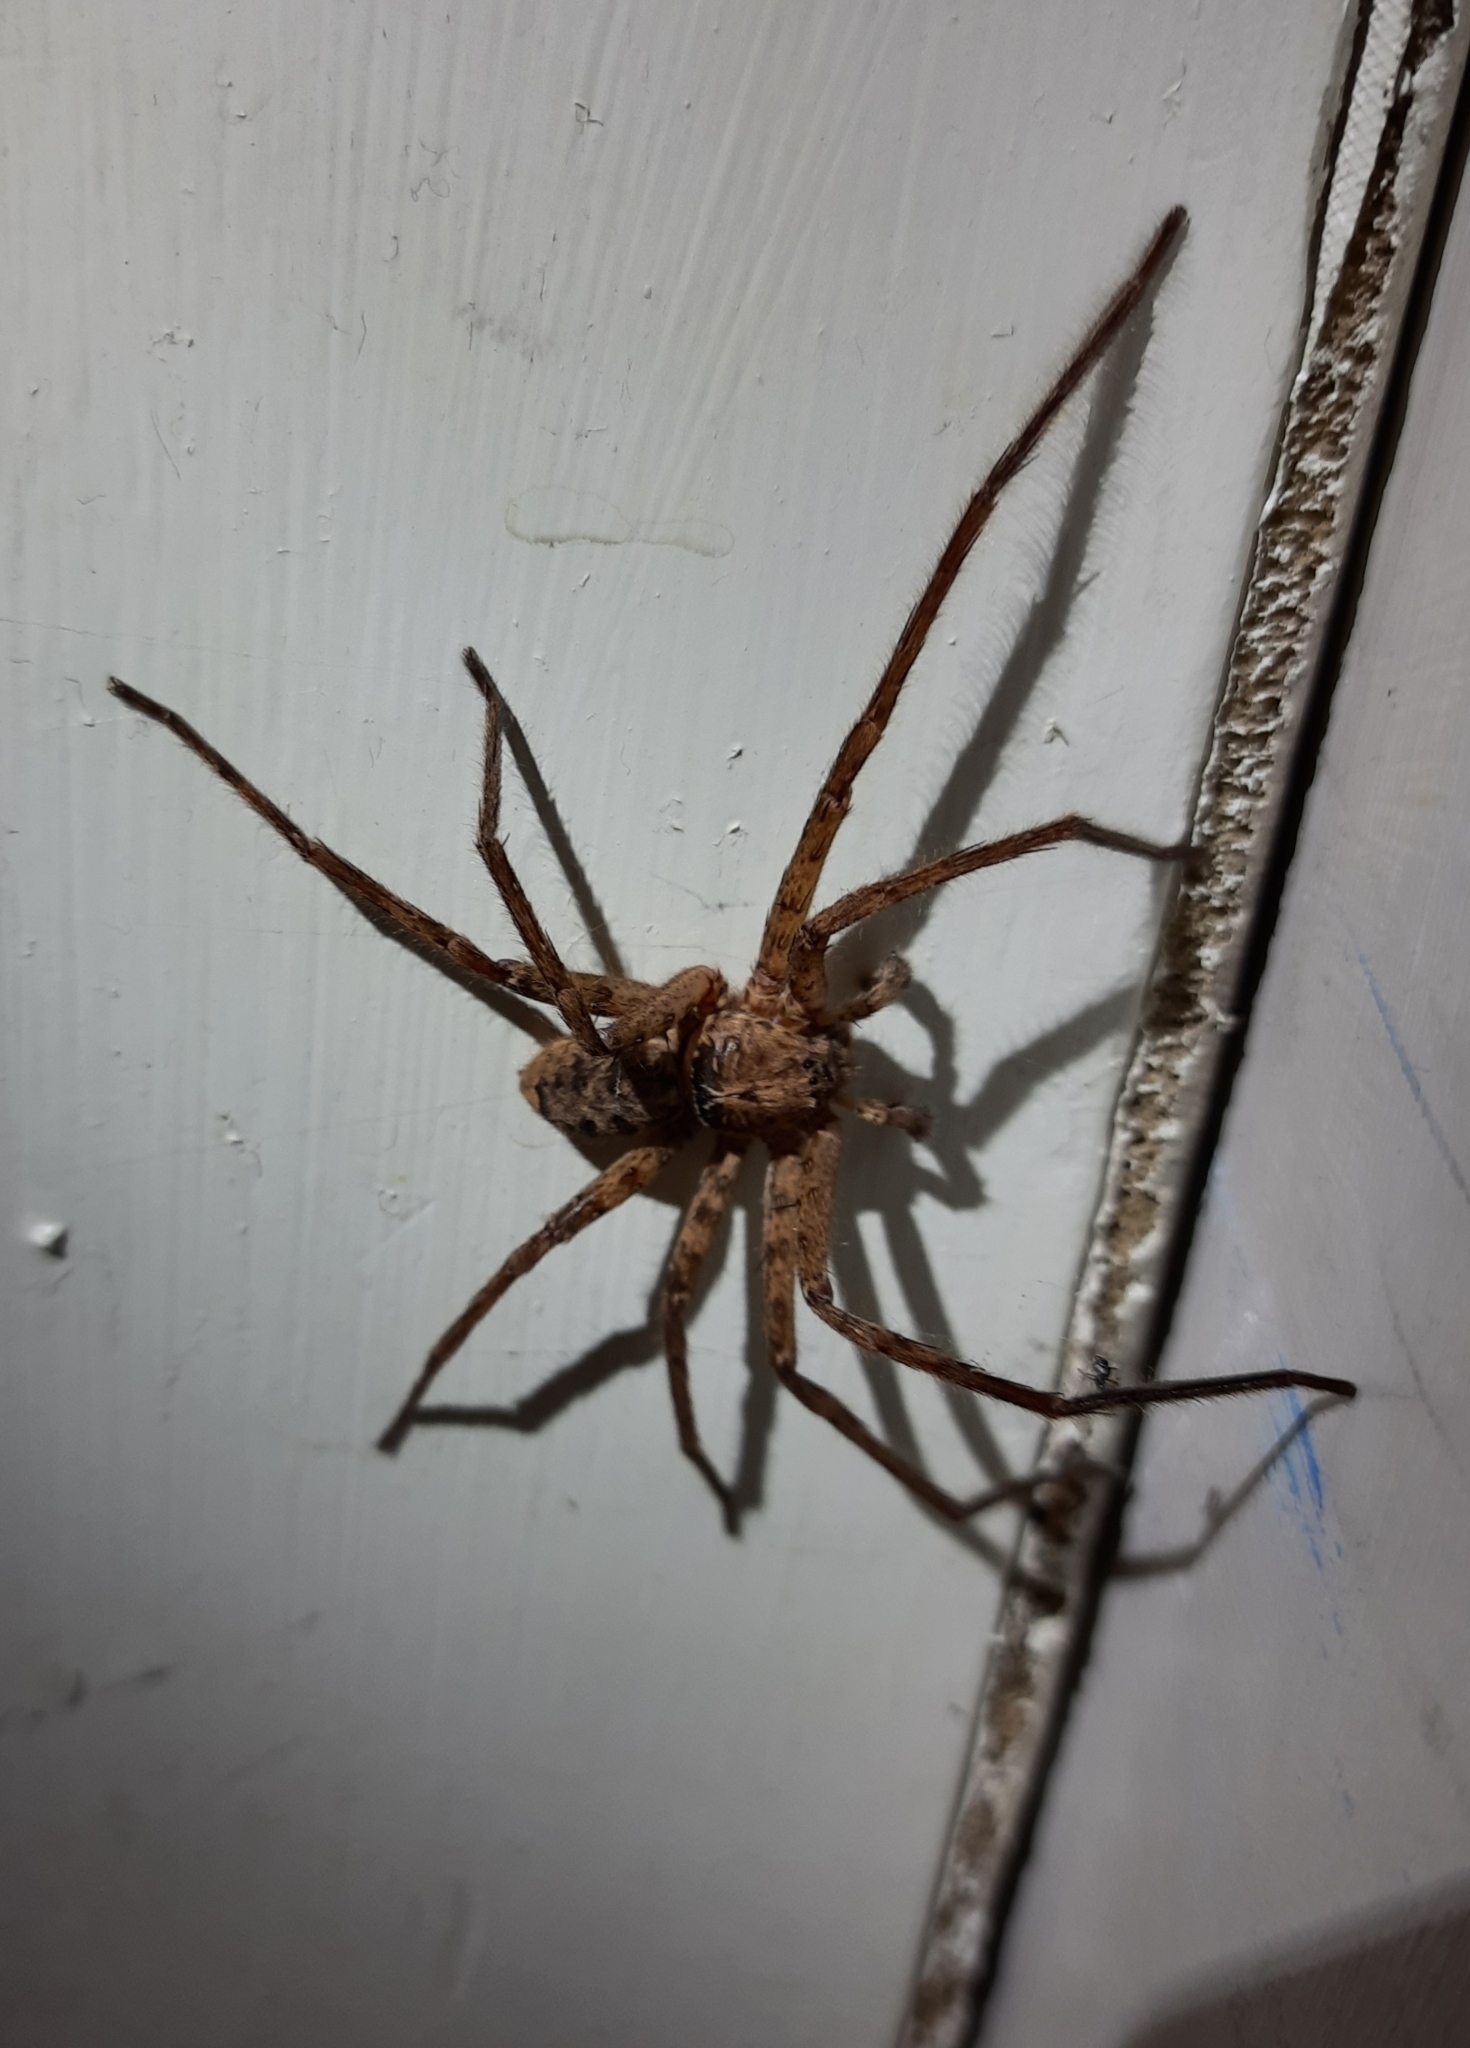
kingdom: Animalia
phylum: Arthropoda
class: Arachnida
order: Araneae
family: Sparassidae
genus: Heteropoda
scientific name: Heteropoda jugulans
